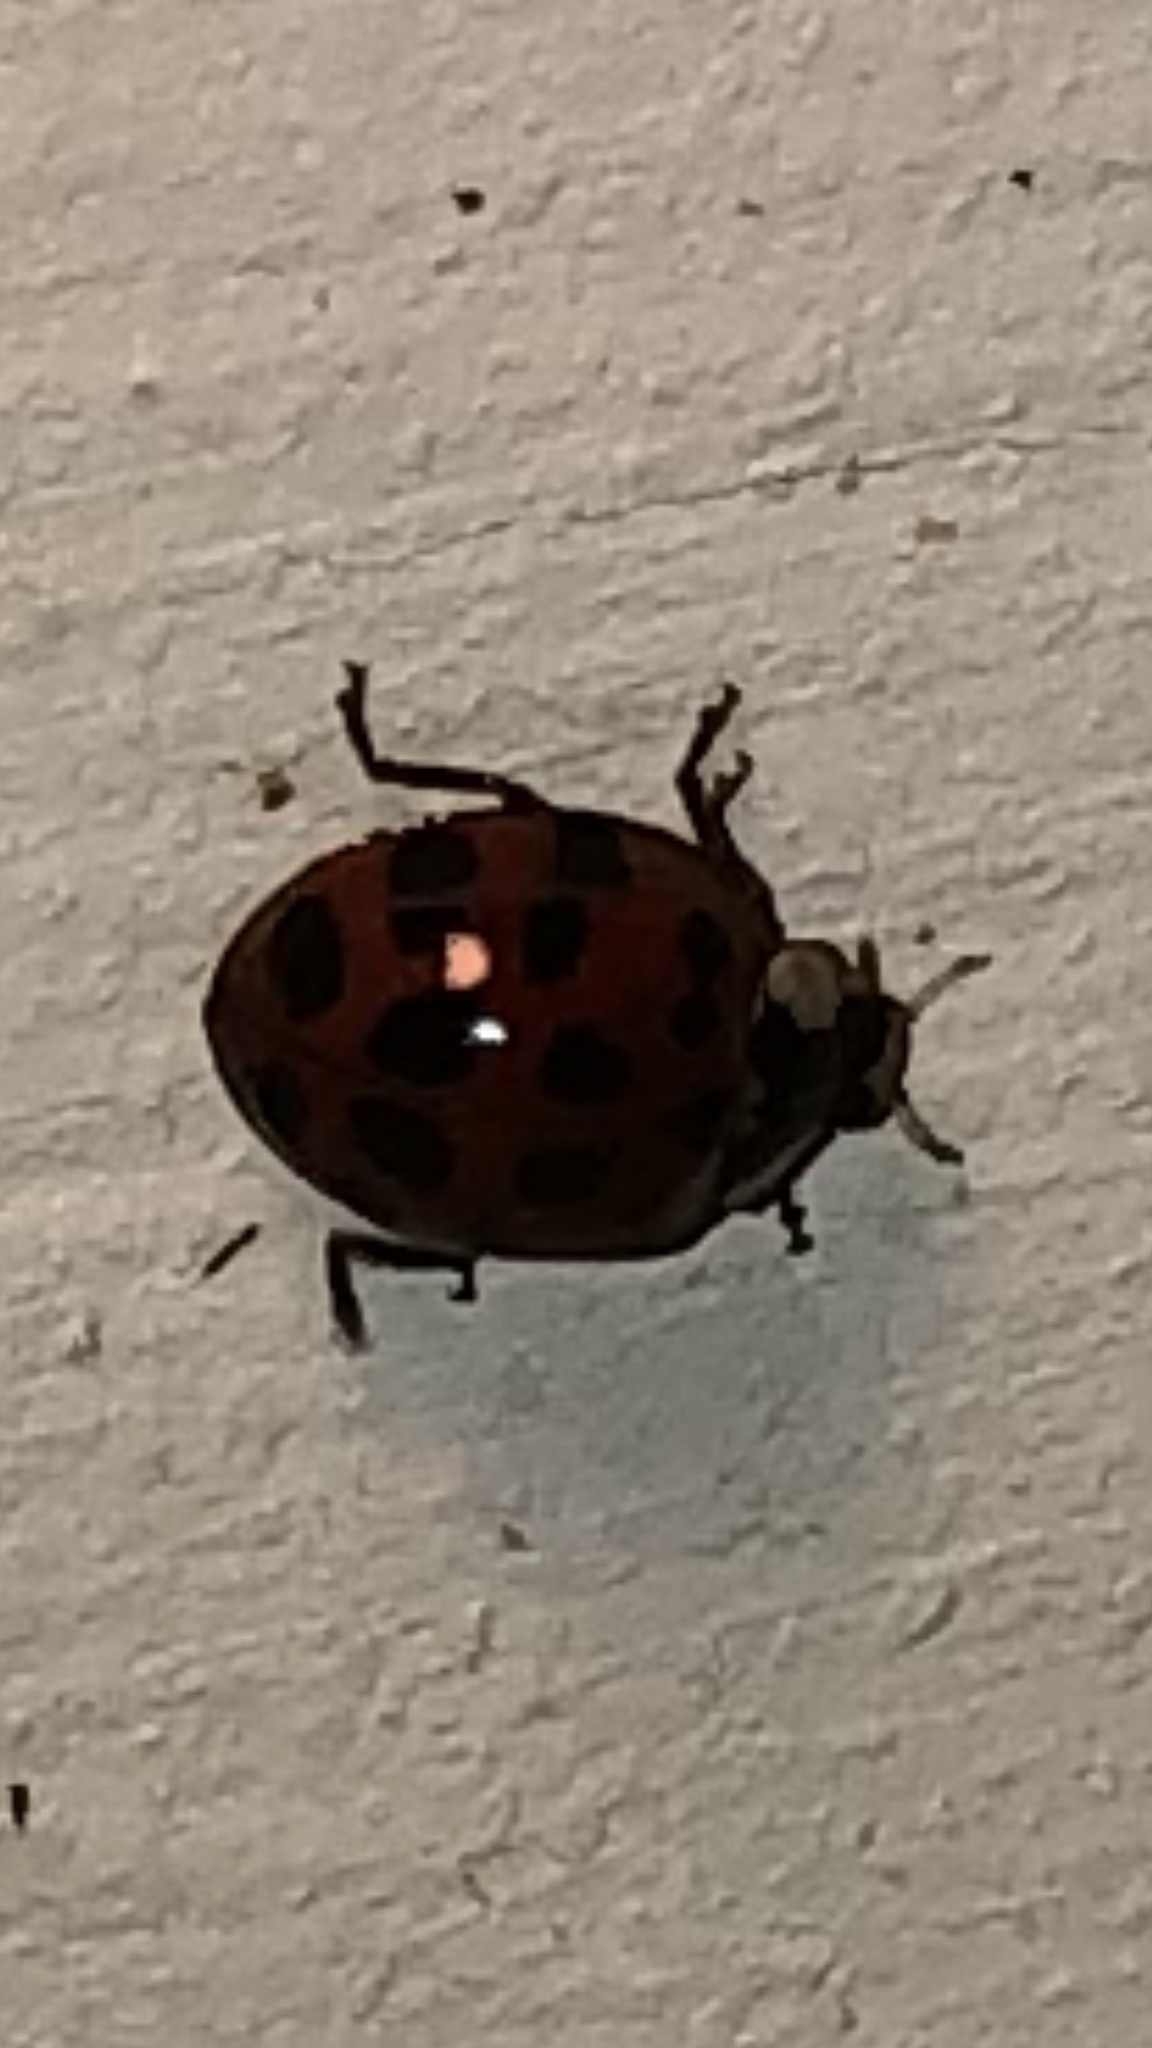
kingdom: Animalia
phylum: Arthropoda
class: Insecta
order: Coleoptera
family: Coccinellidae
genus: Harmonia
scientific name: Harmonia axyridis
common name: Harlequin ladybird
